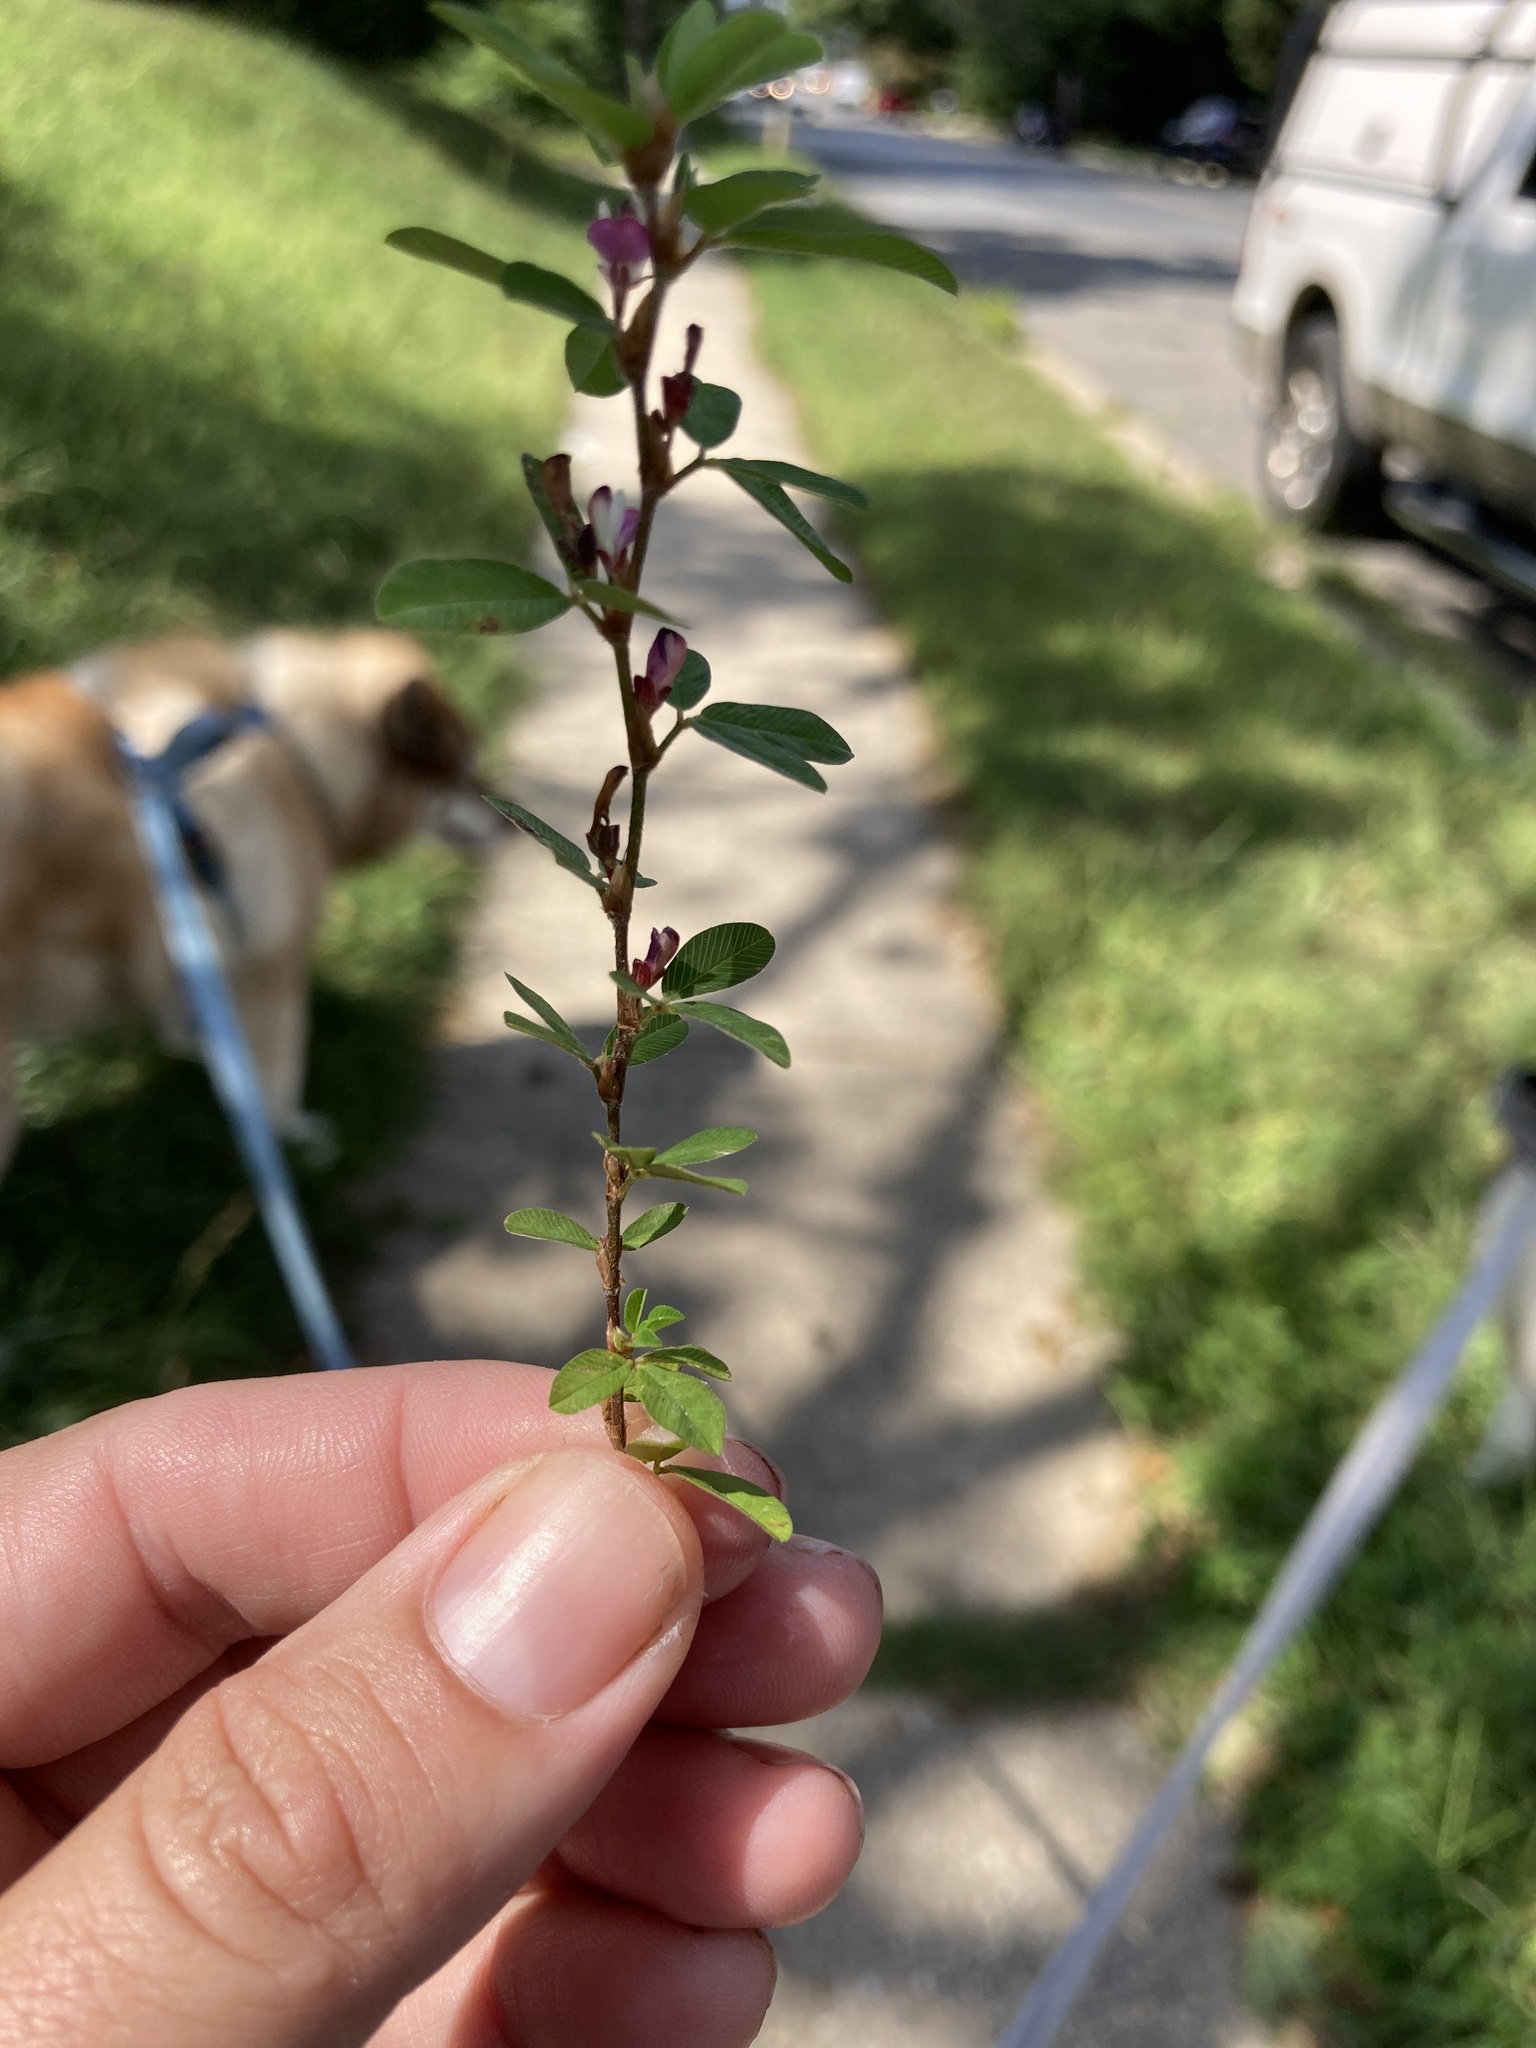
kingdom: Plantae
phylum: Tracheophyta
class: Magnoliopsida
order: Fabales
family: Fabaceae
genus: Kummerowia
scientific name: Kummerowia striata
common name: Japanese clover
